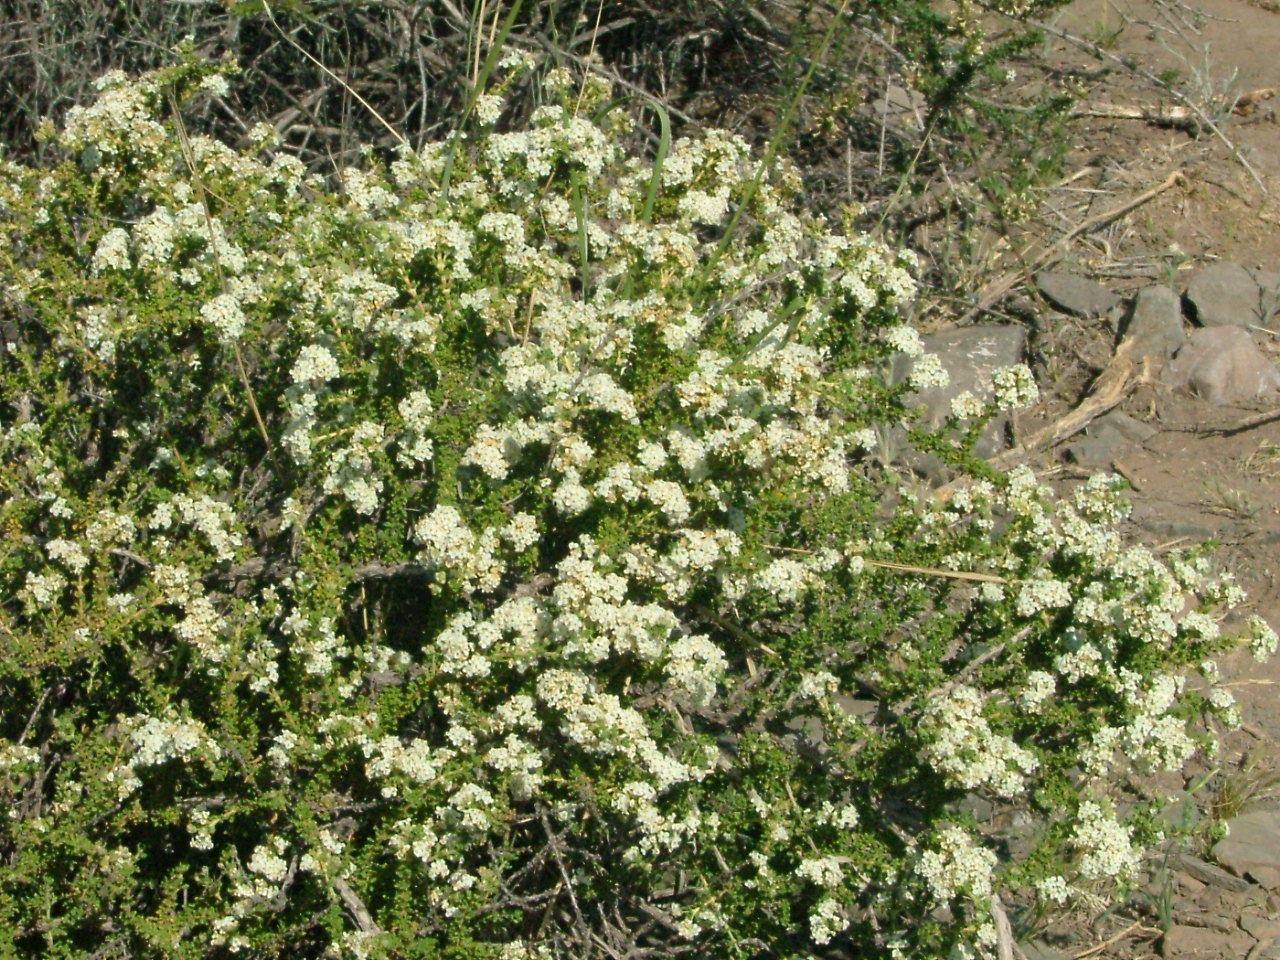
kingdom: Plantae
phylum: Tracheophyta
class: Magnoliopsida
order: Lamiales
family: Verbenaceae
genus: Acantholippia
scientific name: Acantholippia seriphioides
